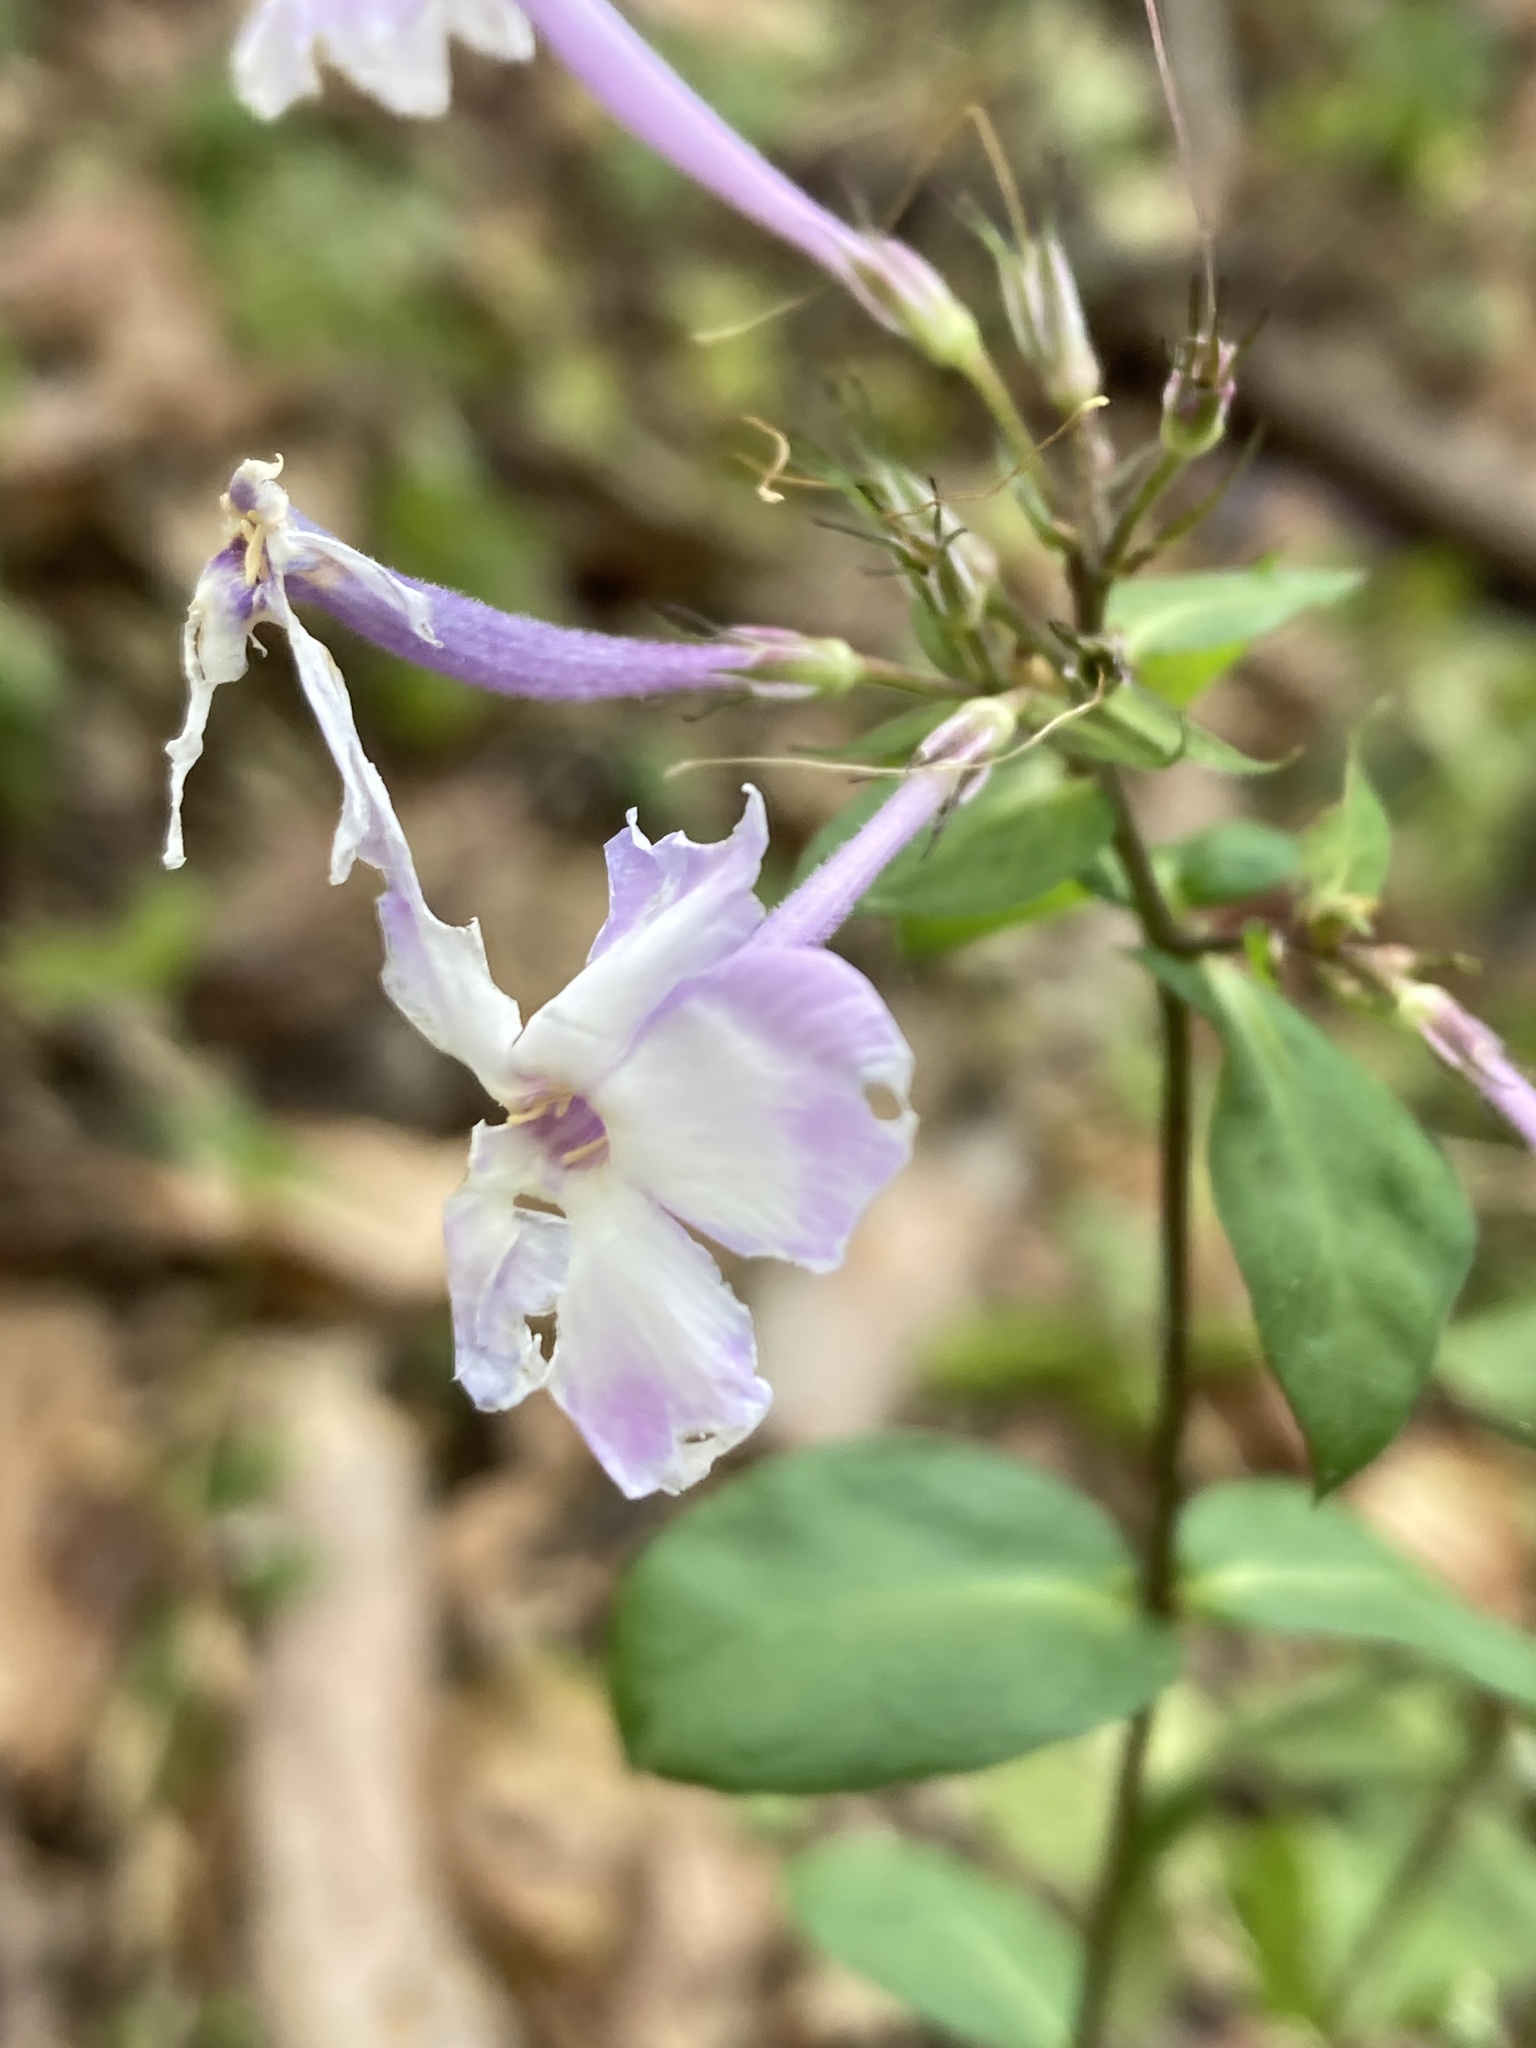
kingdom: Plantae
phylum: Tracheophyta
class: Magnoliopsida
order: Ericales
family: Polemoniaceae
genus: Phlox
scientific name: Phlox paniculata
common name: Fall phlox
